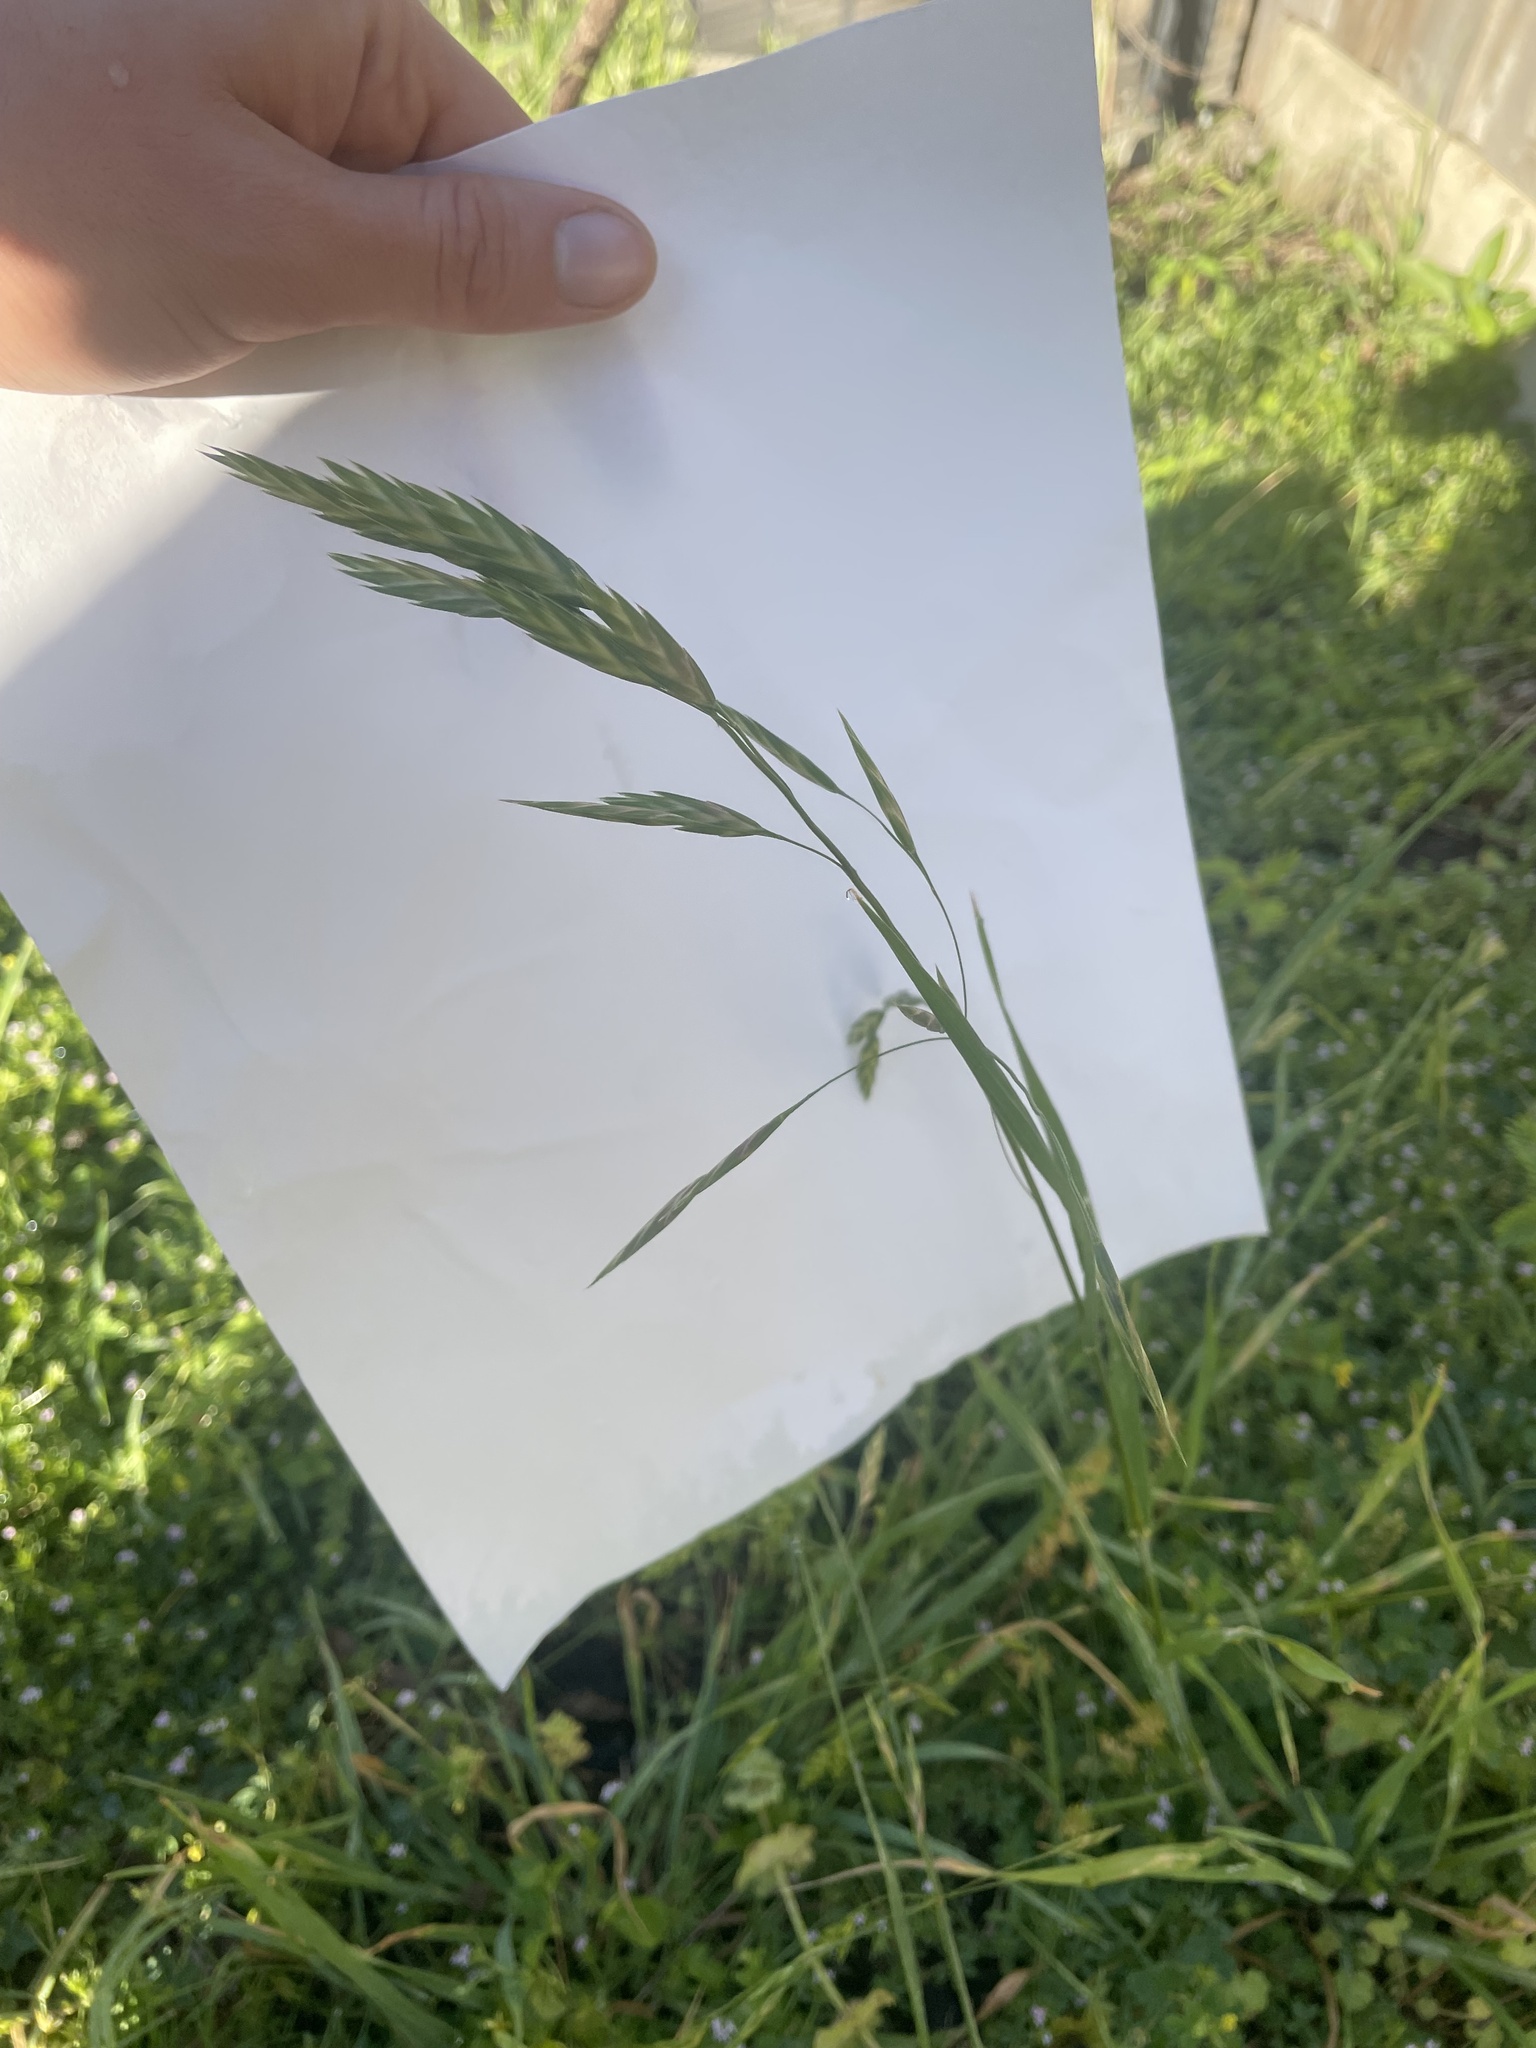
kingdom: Plantae
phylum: Tracheophyta
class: Liliopsida
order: Poales
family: Poaceae
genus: Bromus
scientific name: Bromus catharticus
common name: Rescuegrass
